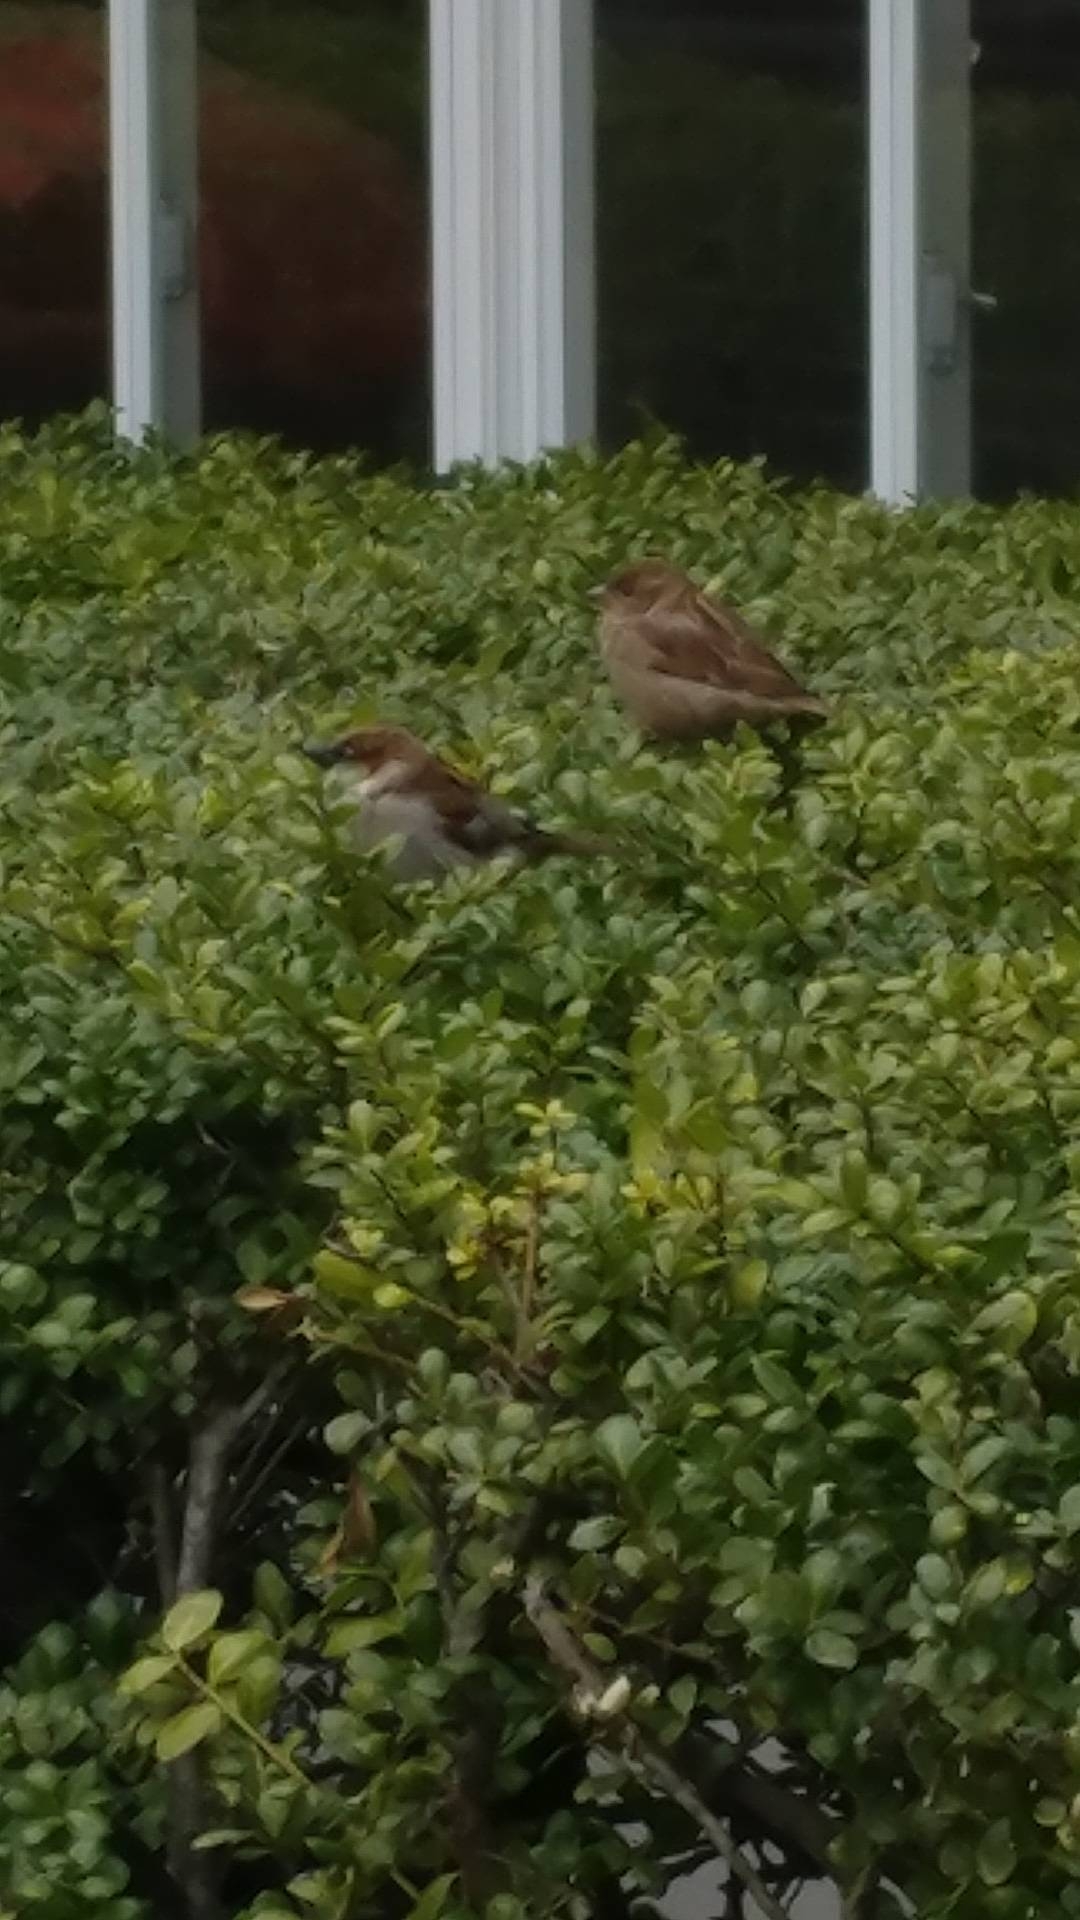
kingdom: Animalia
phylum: Chordata
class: Aves
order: Passeriformes
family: Passeridae
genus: Passer
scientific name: Passer domesticus
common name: House sparrow
